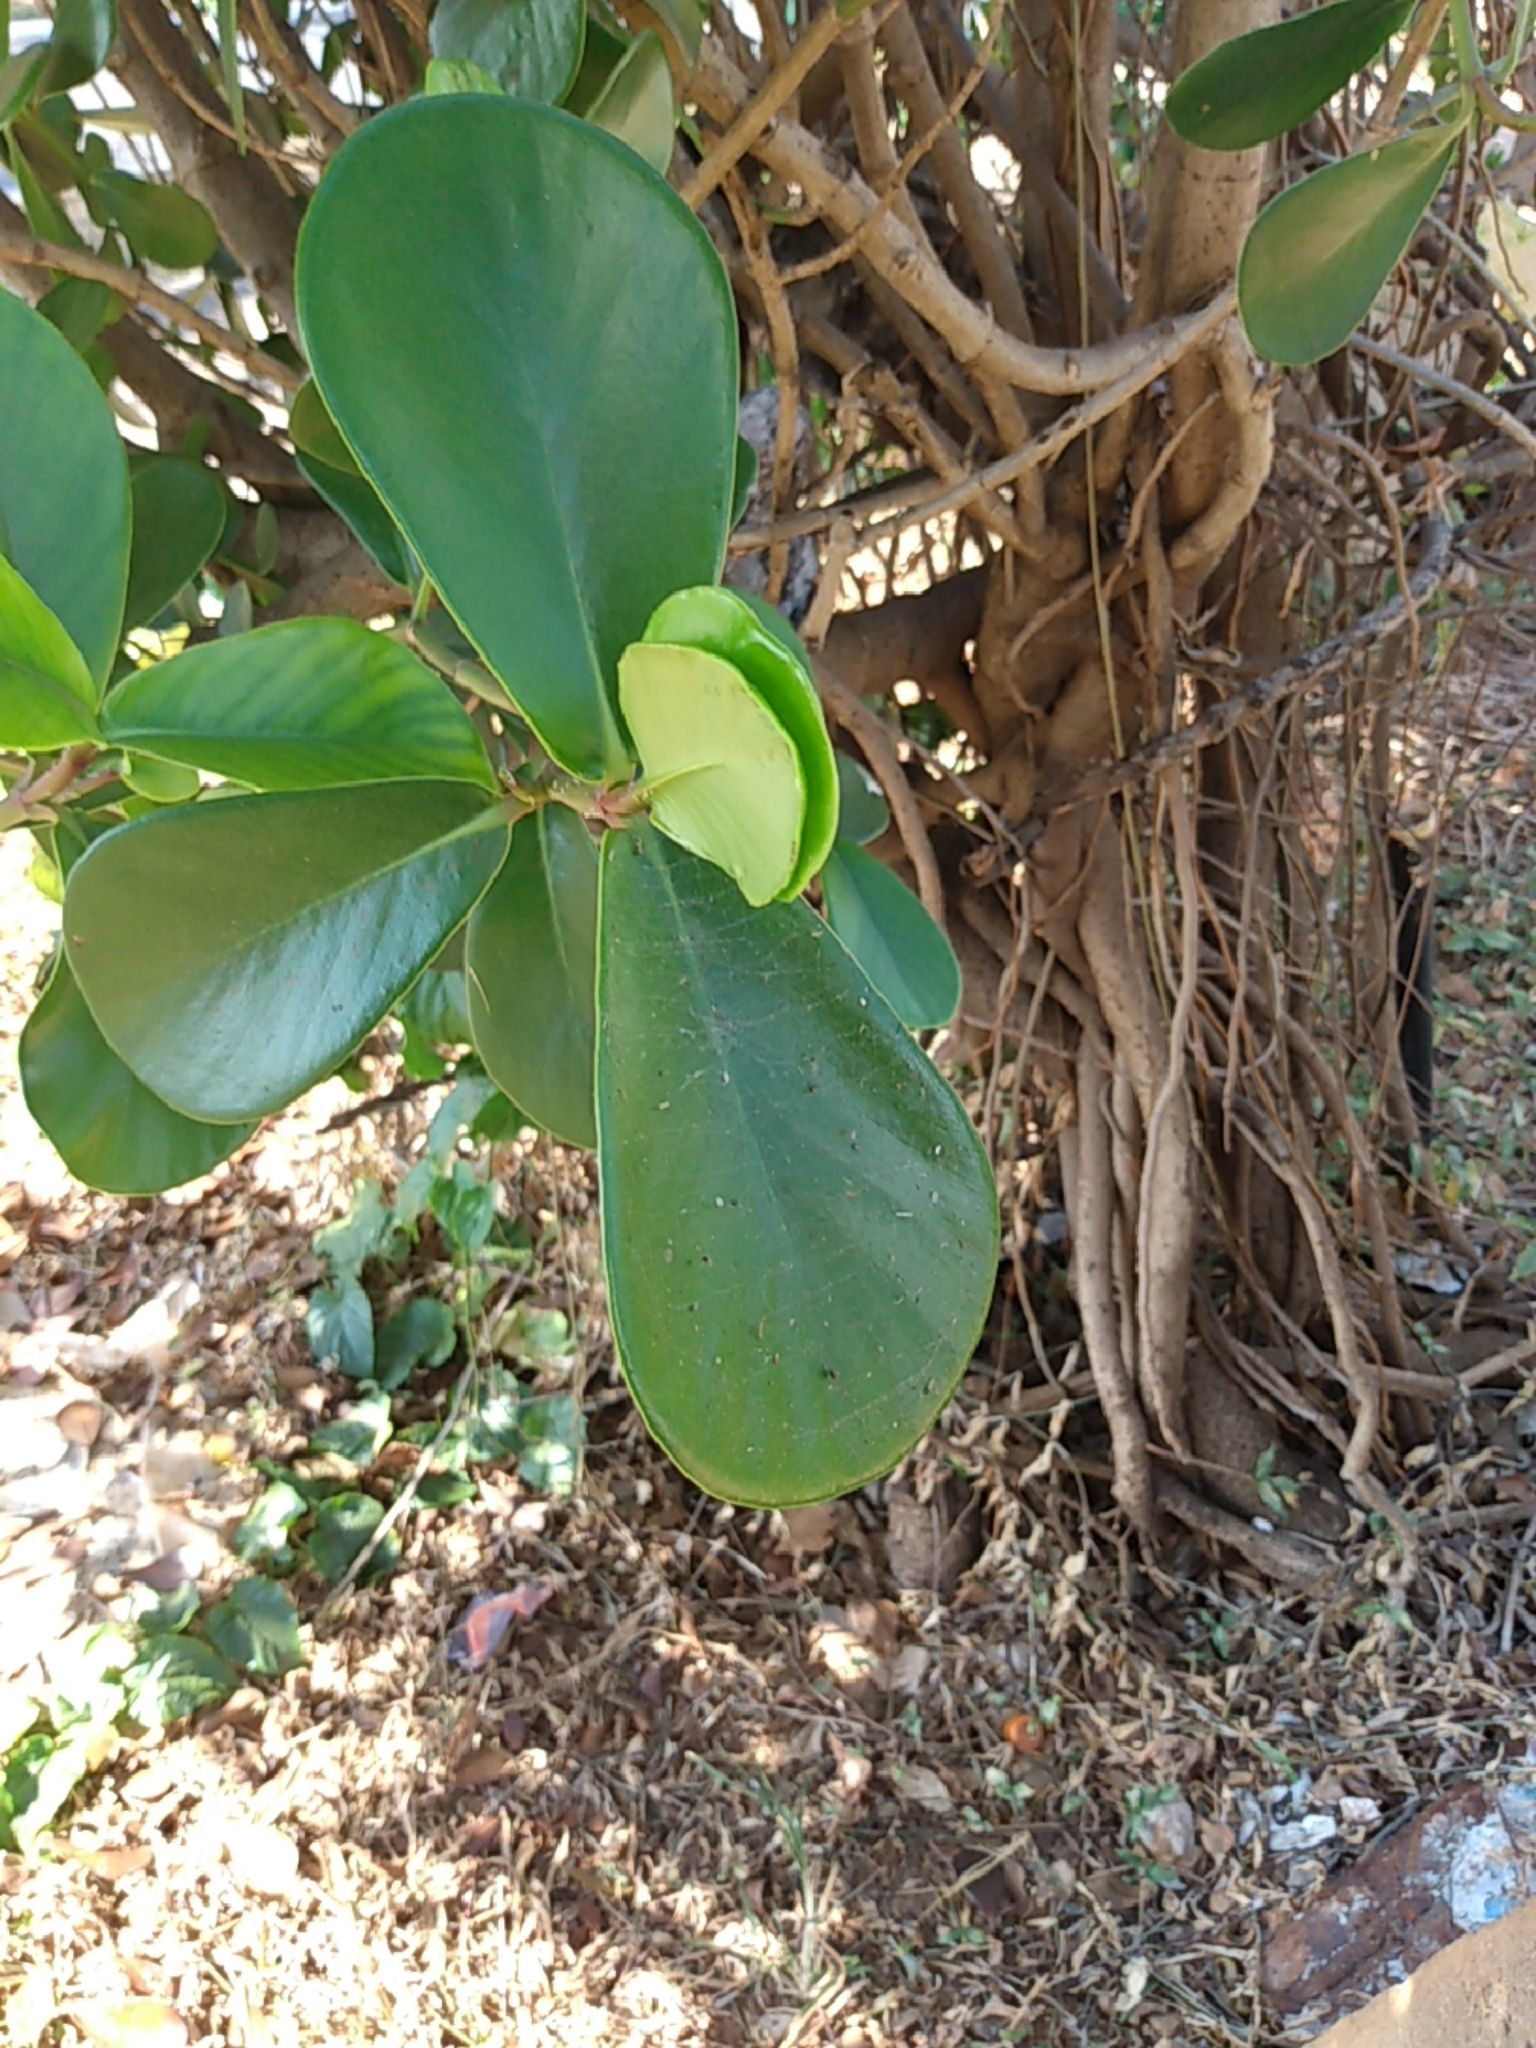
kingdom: Plantae
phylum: Tracheophyta
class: Magnoliopsida
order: Malpighiales
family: Clusiaceae
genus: Clusia
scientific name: Clusia rosea
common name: Scotch attorney
